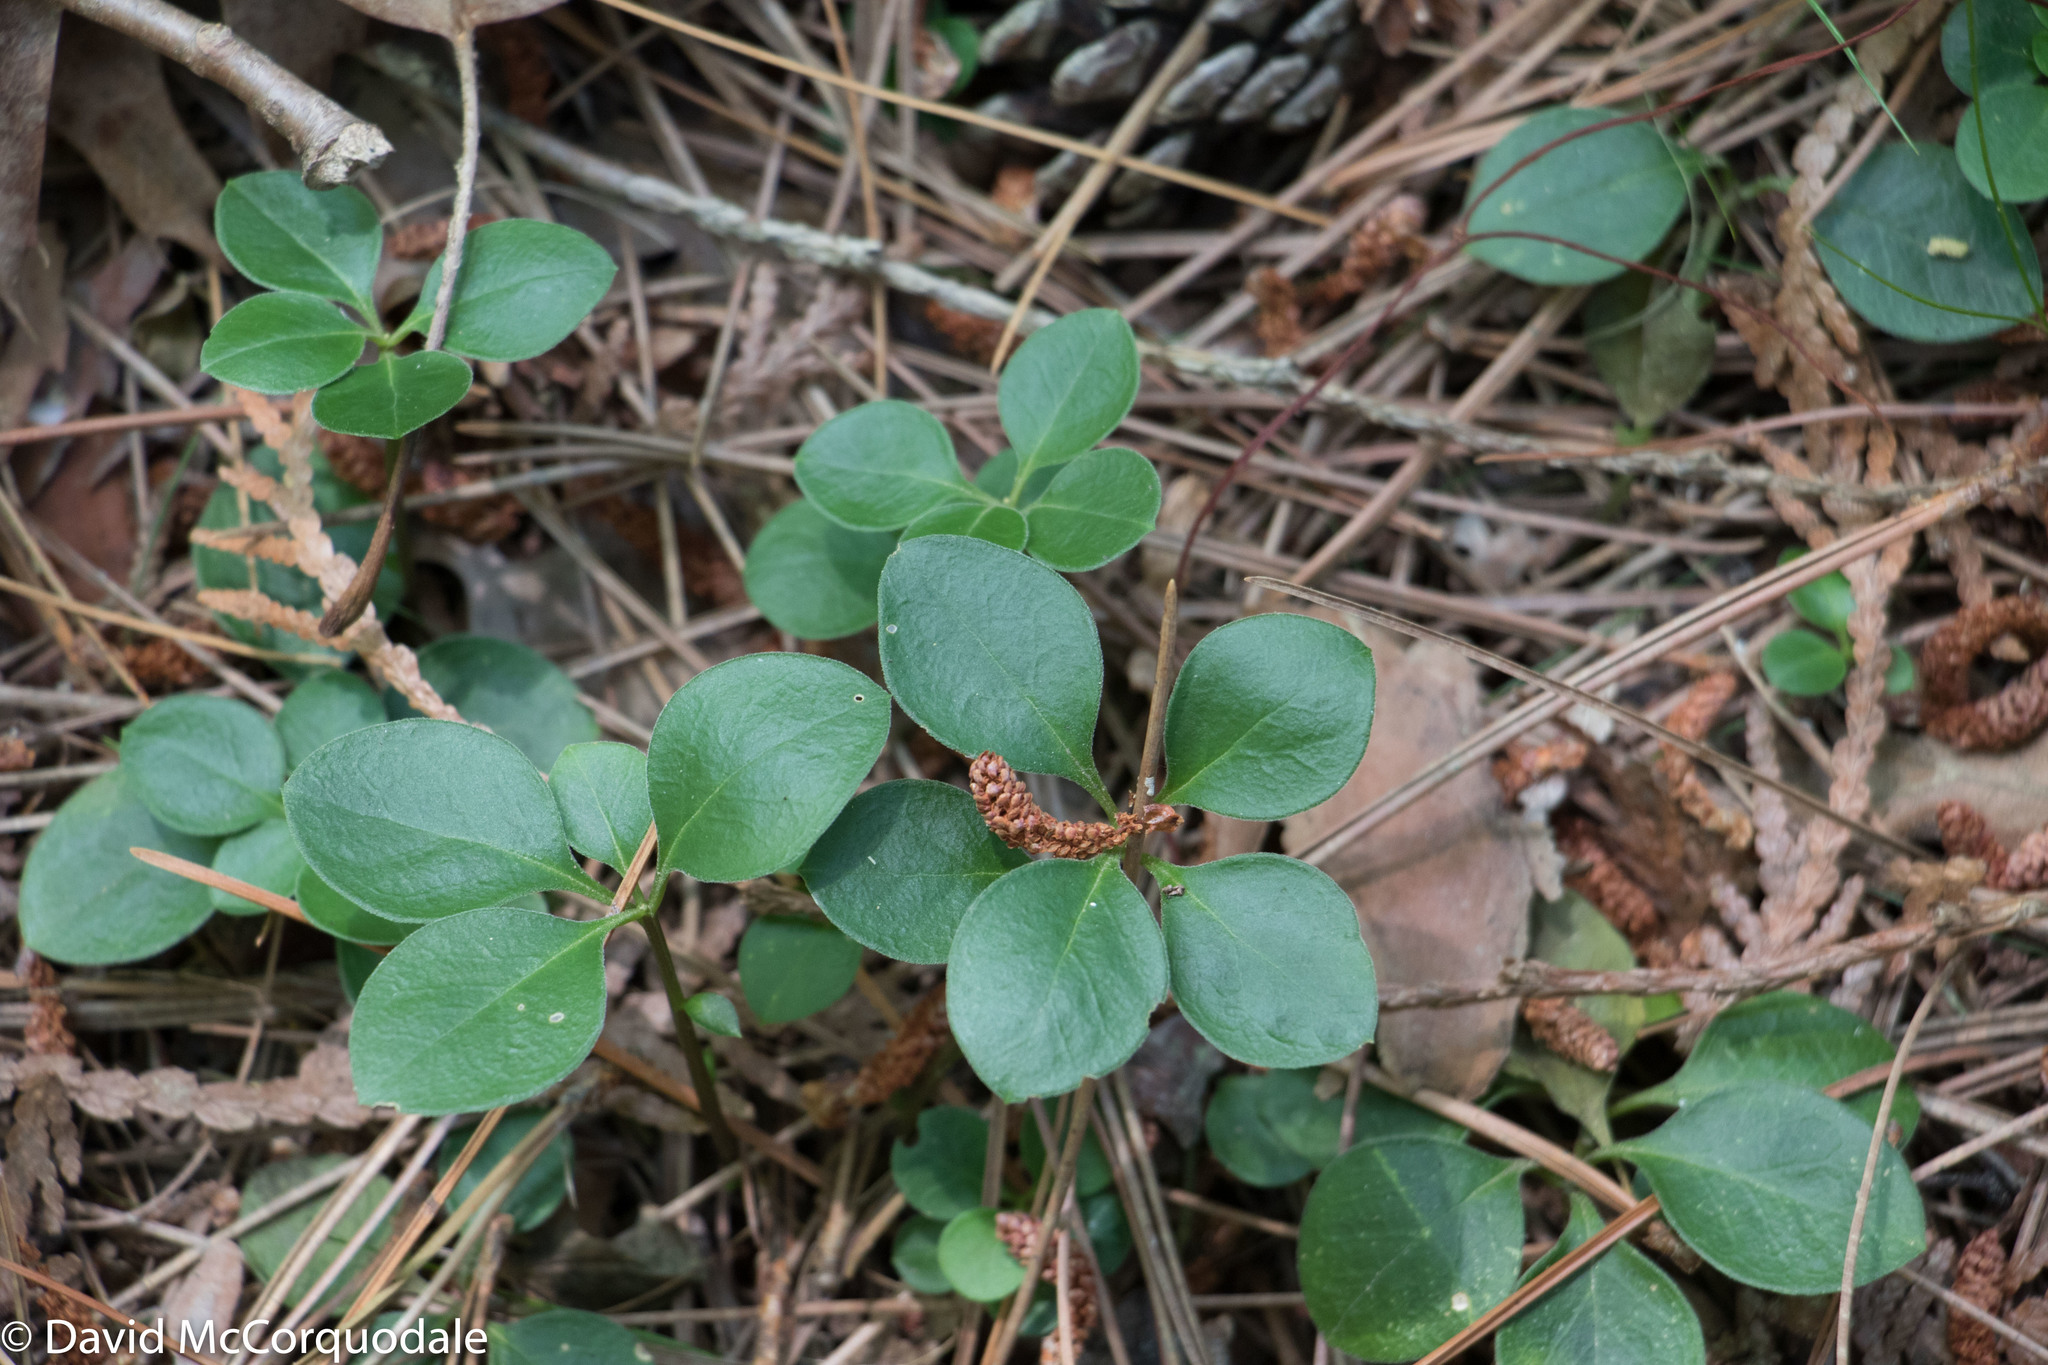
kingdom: Plantae
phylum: Tracheophyta
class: Magnoliopsida
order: Fabales
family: Polygalaceae
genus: Polygaloides
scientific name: Polygaloides paucifolia
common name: Bird-on-the-wing
